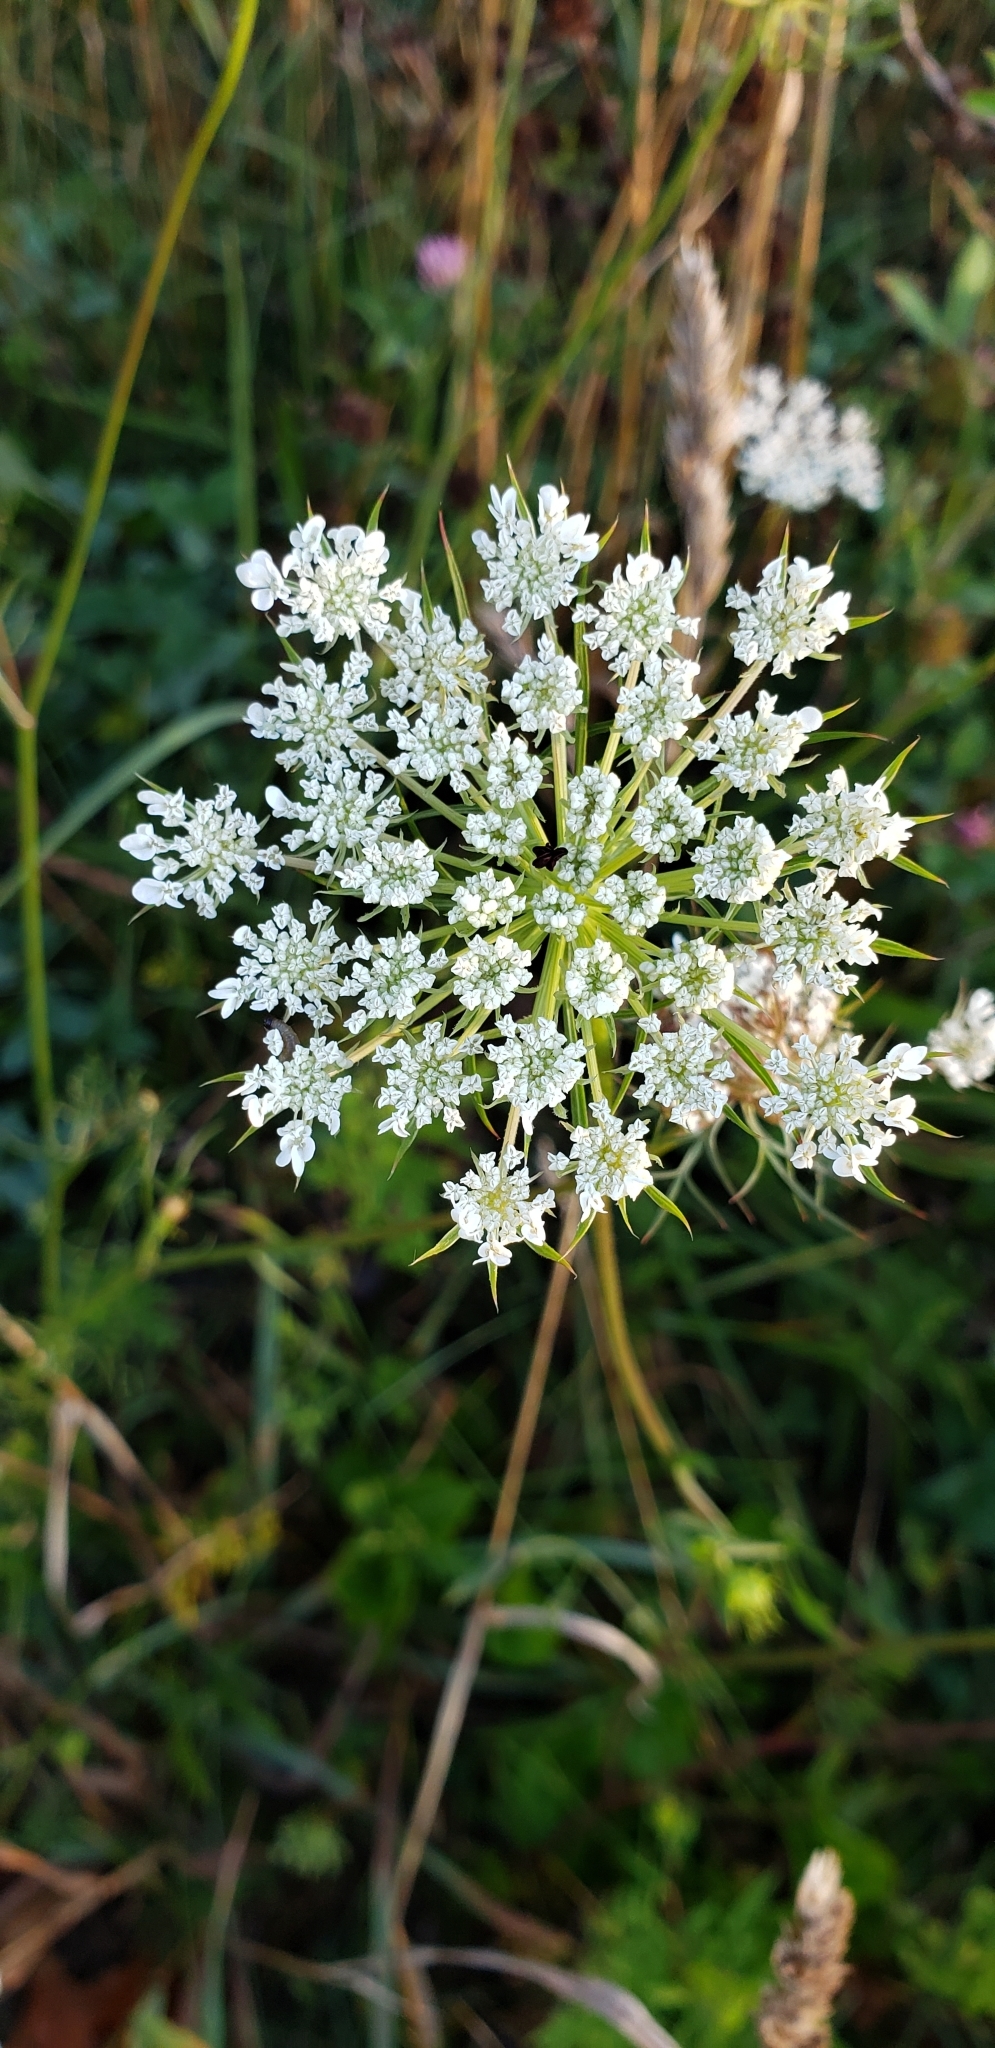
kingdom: Plantae
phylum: Tracheophyta
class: Magnoliopsida
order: Apiales
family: Apiaceae
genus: Daucus
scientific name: Daucus carota
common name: Wild carrot
